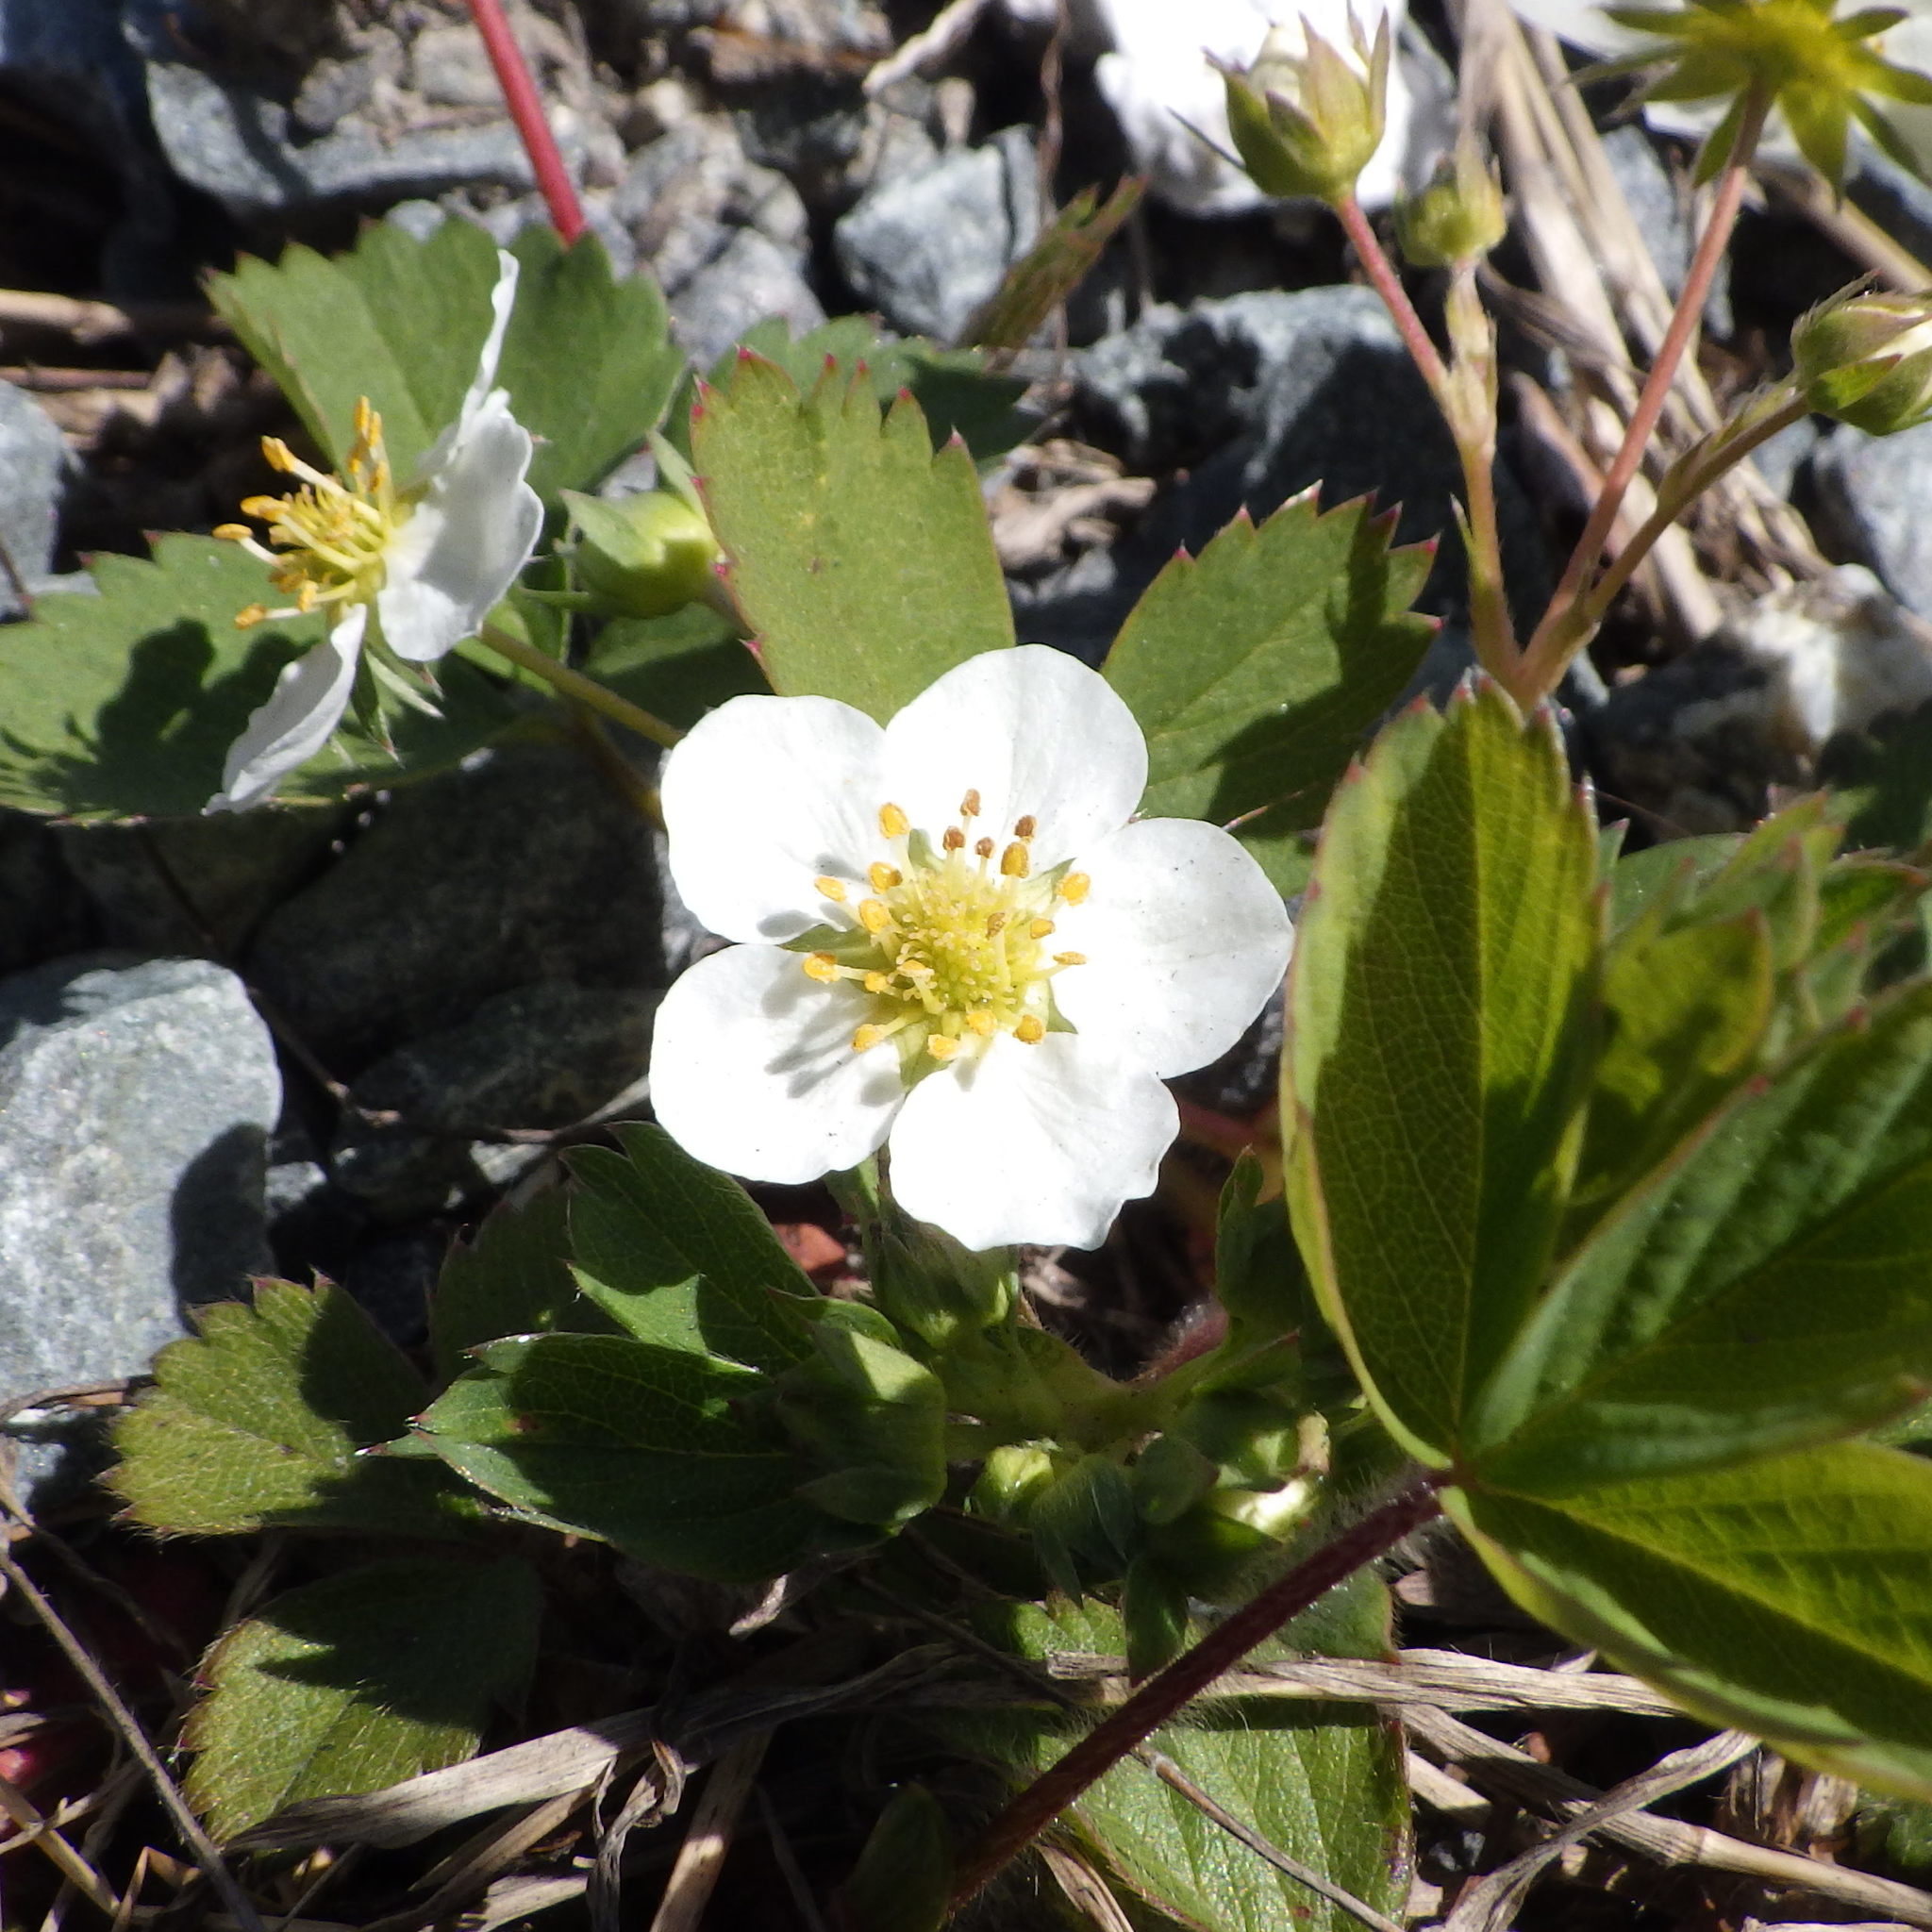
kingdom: Plantae
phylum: Tracheophyta
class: Magnoliopsida
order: Rosales
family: Rosaceae
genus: Fragaria
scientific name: Fragaria virginiana
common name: Thickleaved wild strawberry
